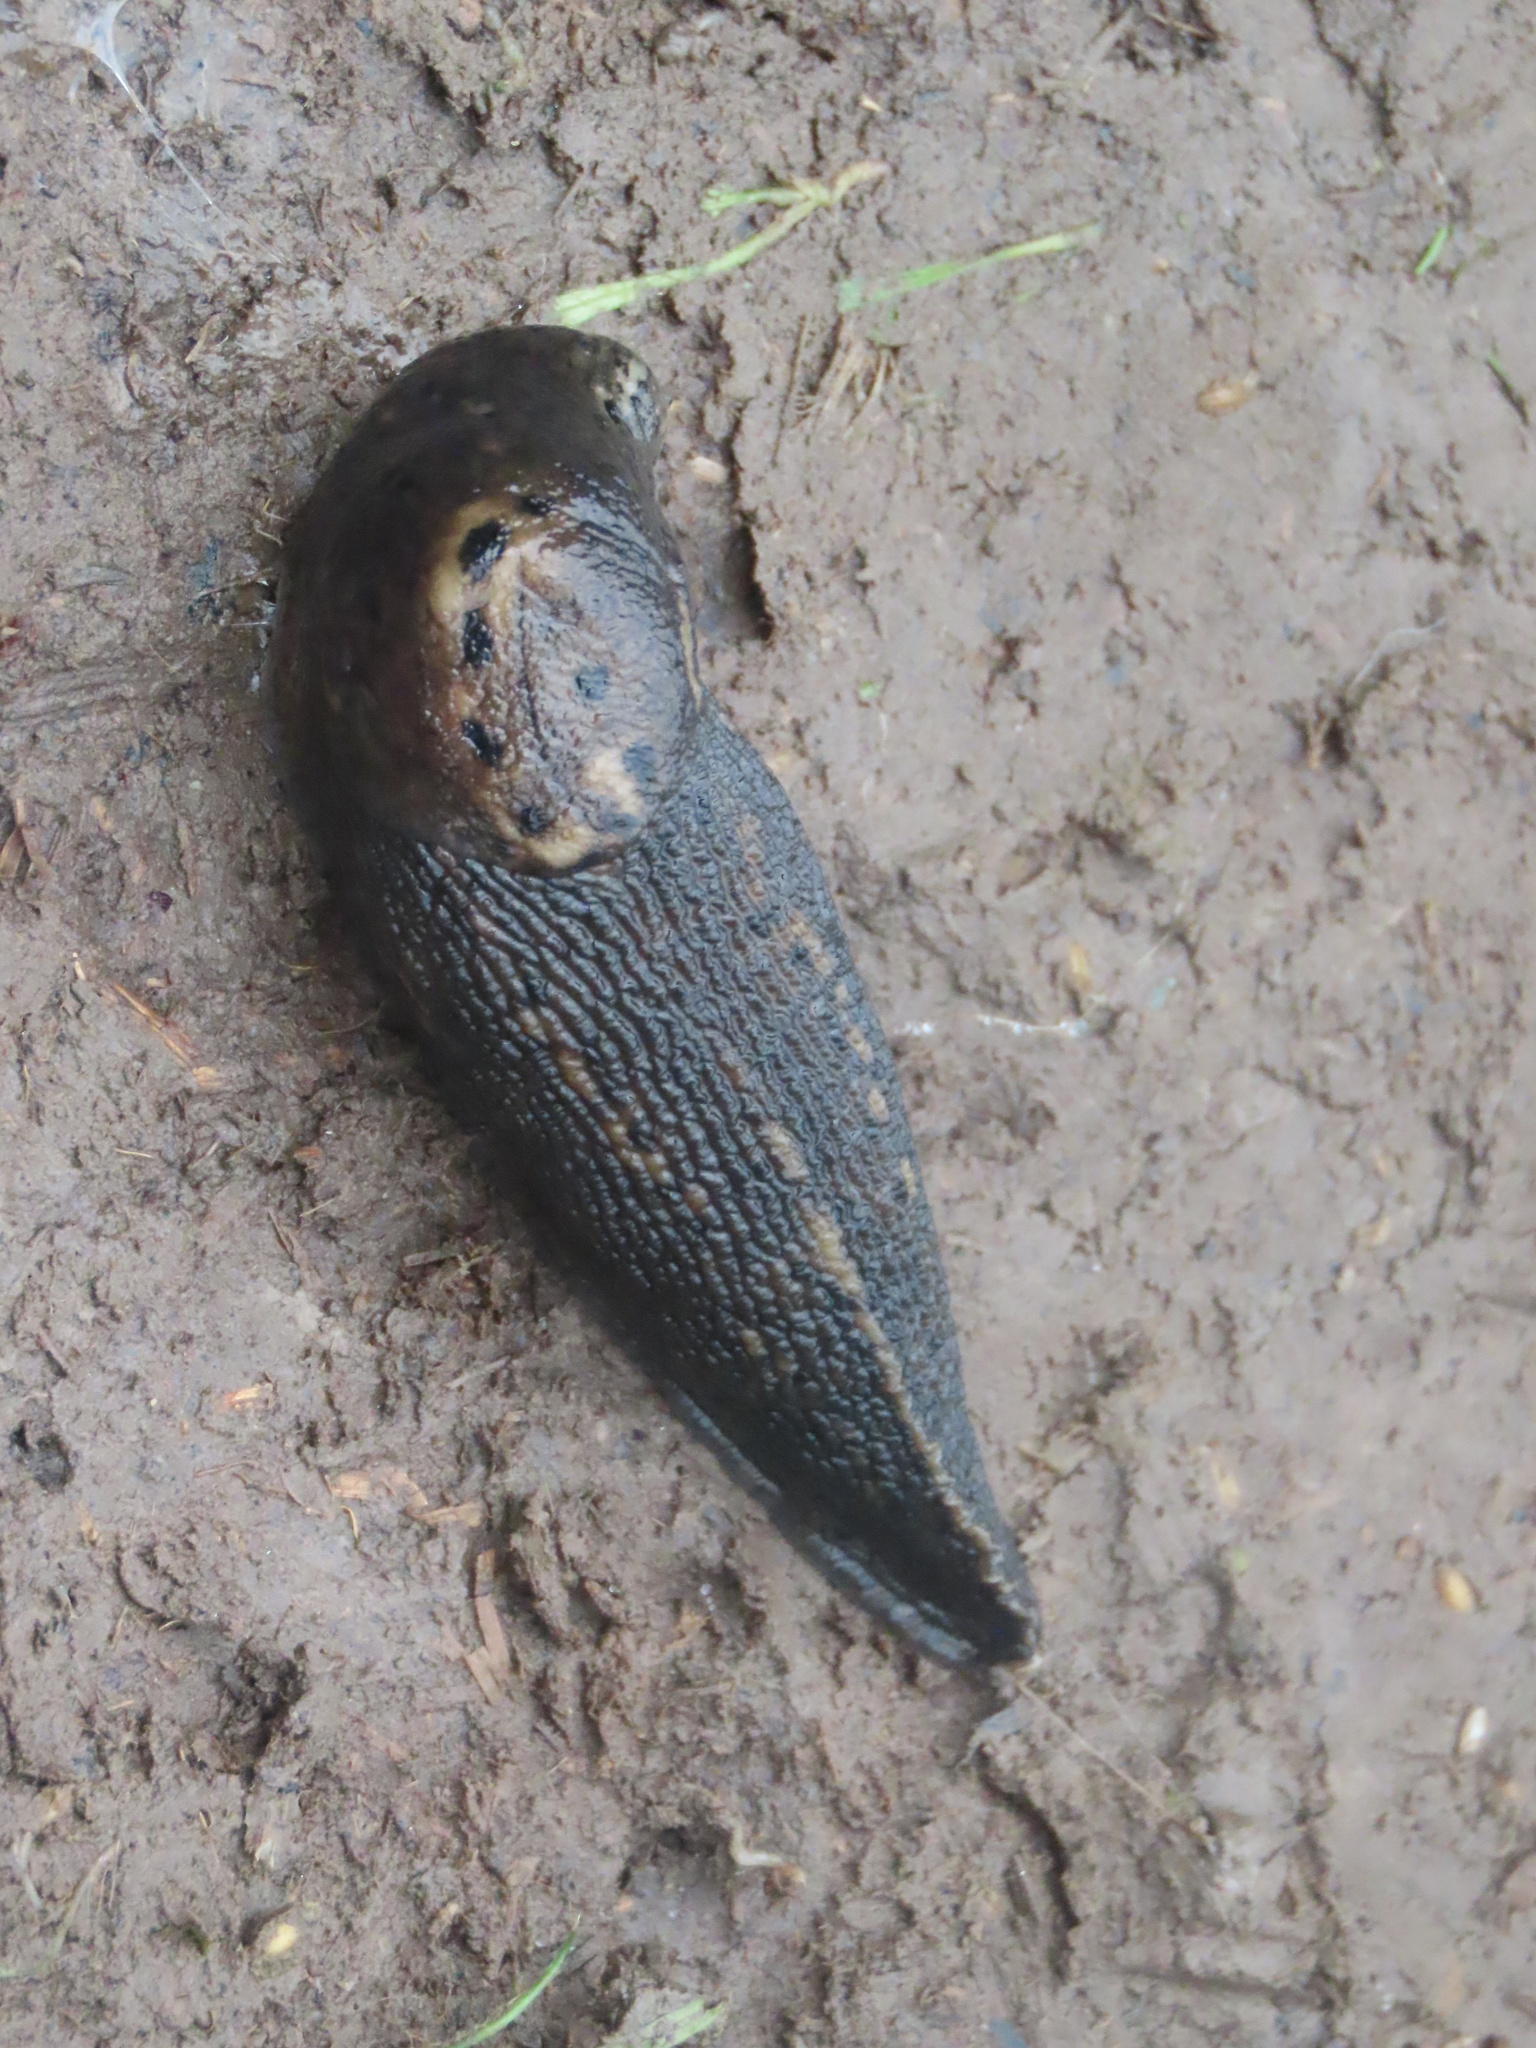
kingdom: Animalia
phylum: Mollusca
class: Gastropoda
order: Stylommatophora
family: Limacidae
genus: Limax
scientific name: Limax maximus
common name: Great grey slug
